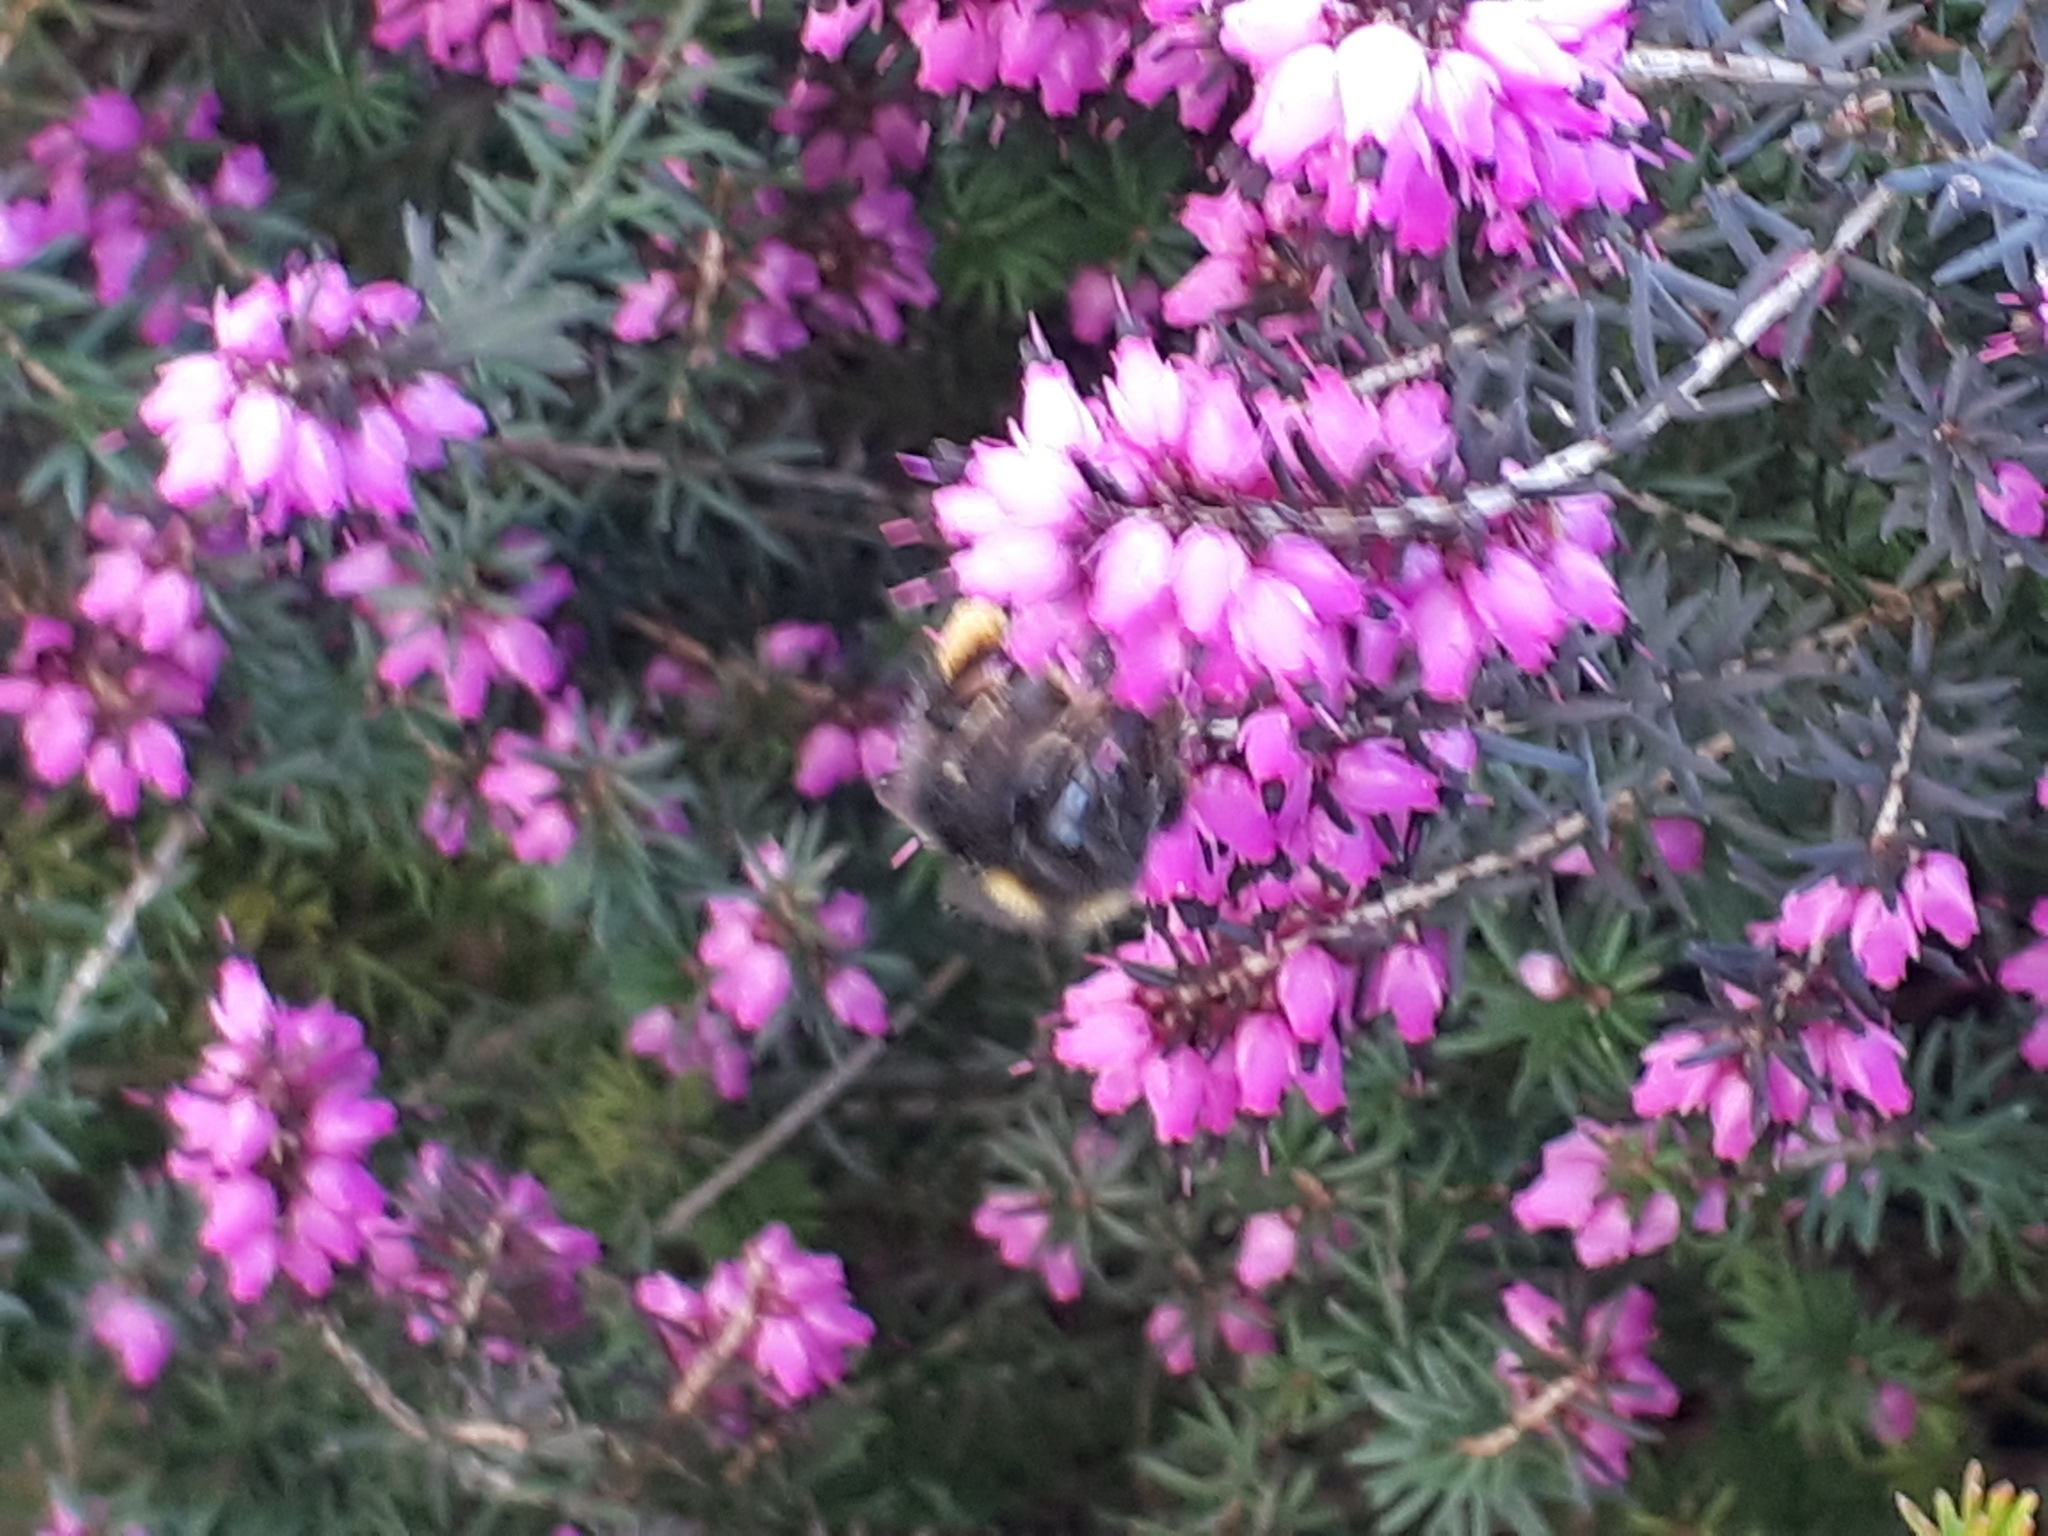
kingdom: Animalia
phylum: Arthropoda
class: Insecta
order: Hymenoptera
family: Apidae
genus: Bombus
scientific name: Bombus pratorum
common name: Early humble-bee
